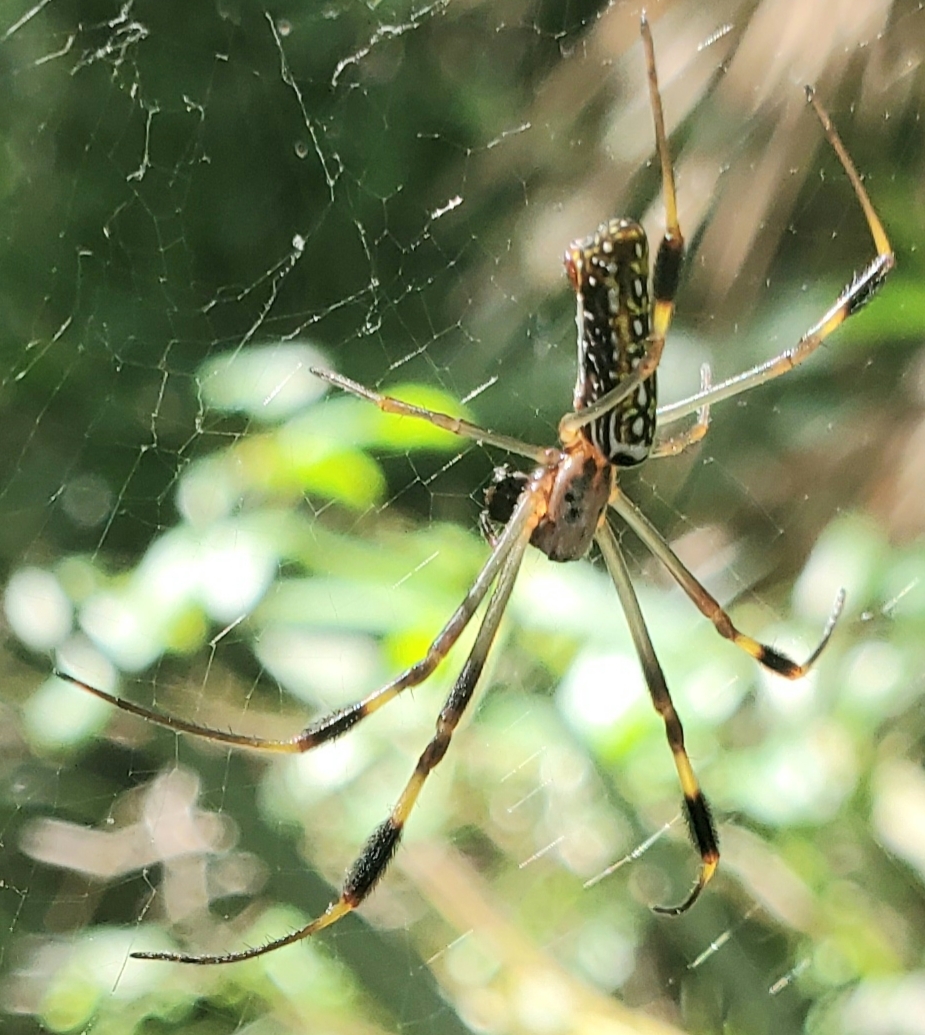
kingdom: Animalia
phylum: Arthropoda
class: Arachnida
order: Araneae
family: Araneidae
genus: Trichonephila
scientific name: Trichonephila clavipes
